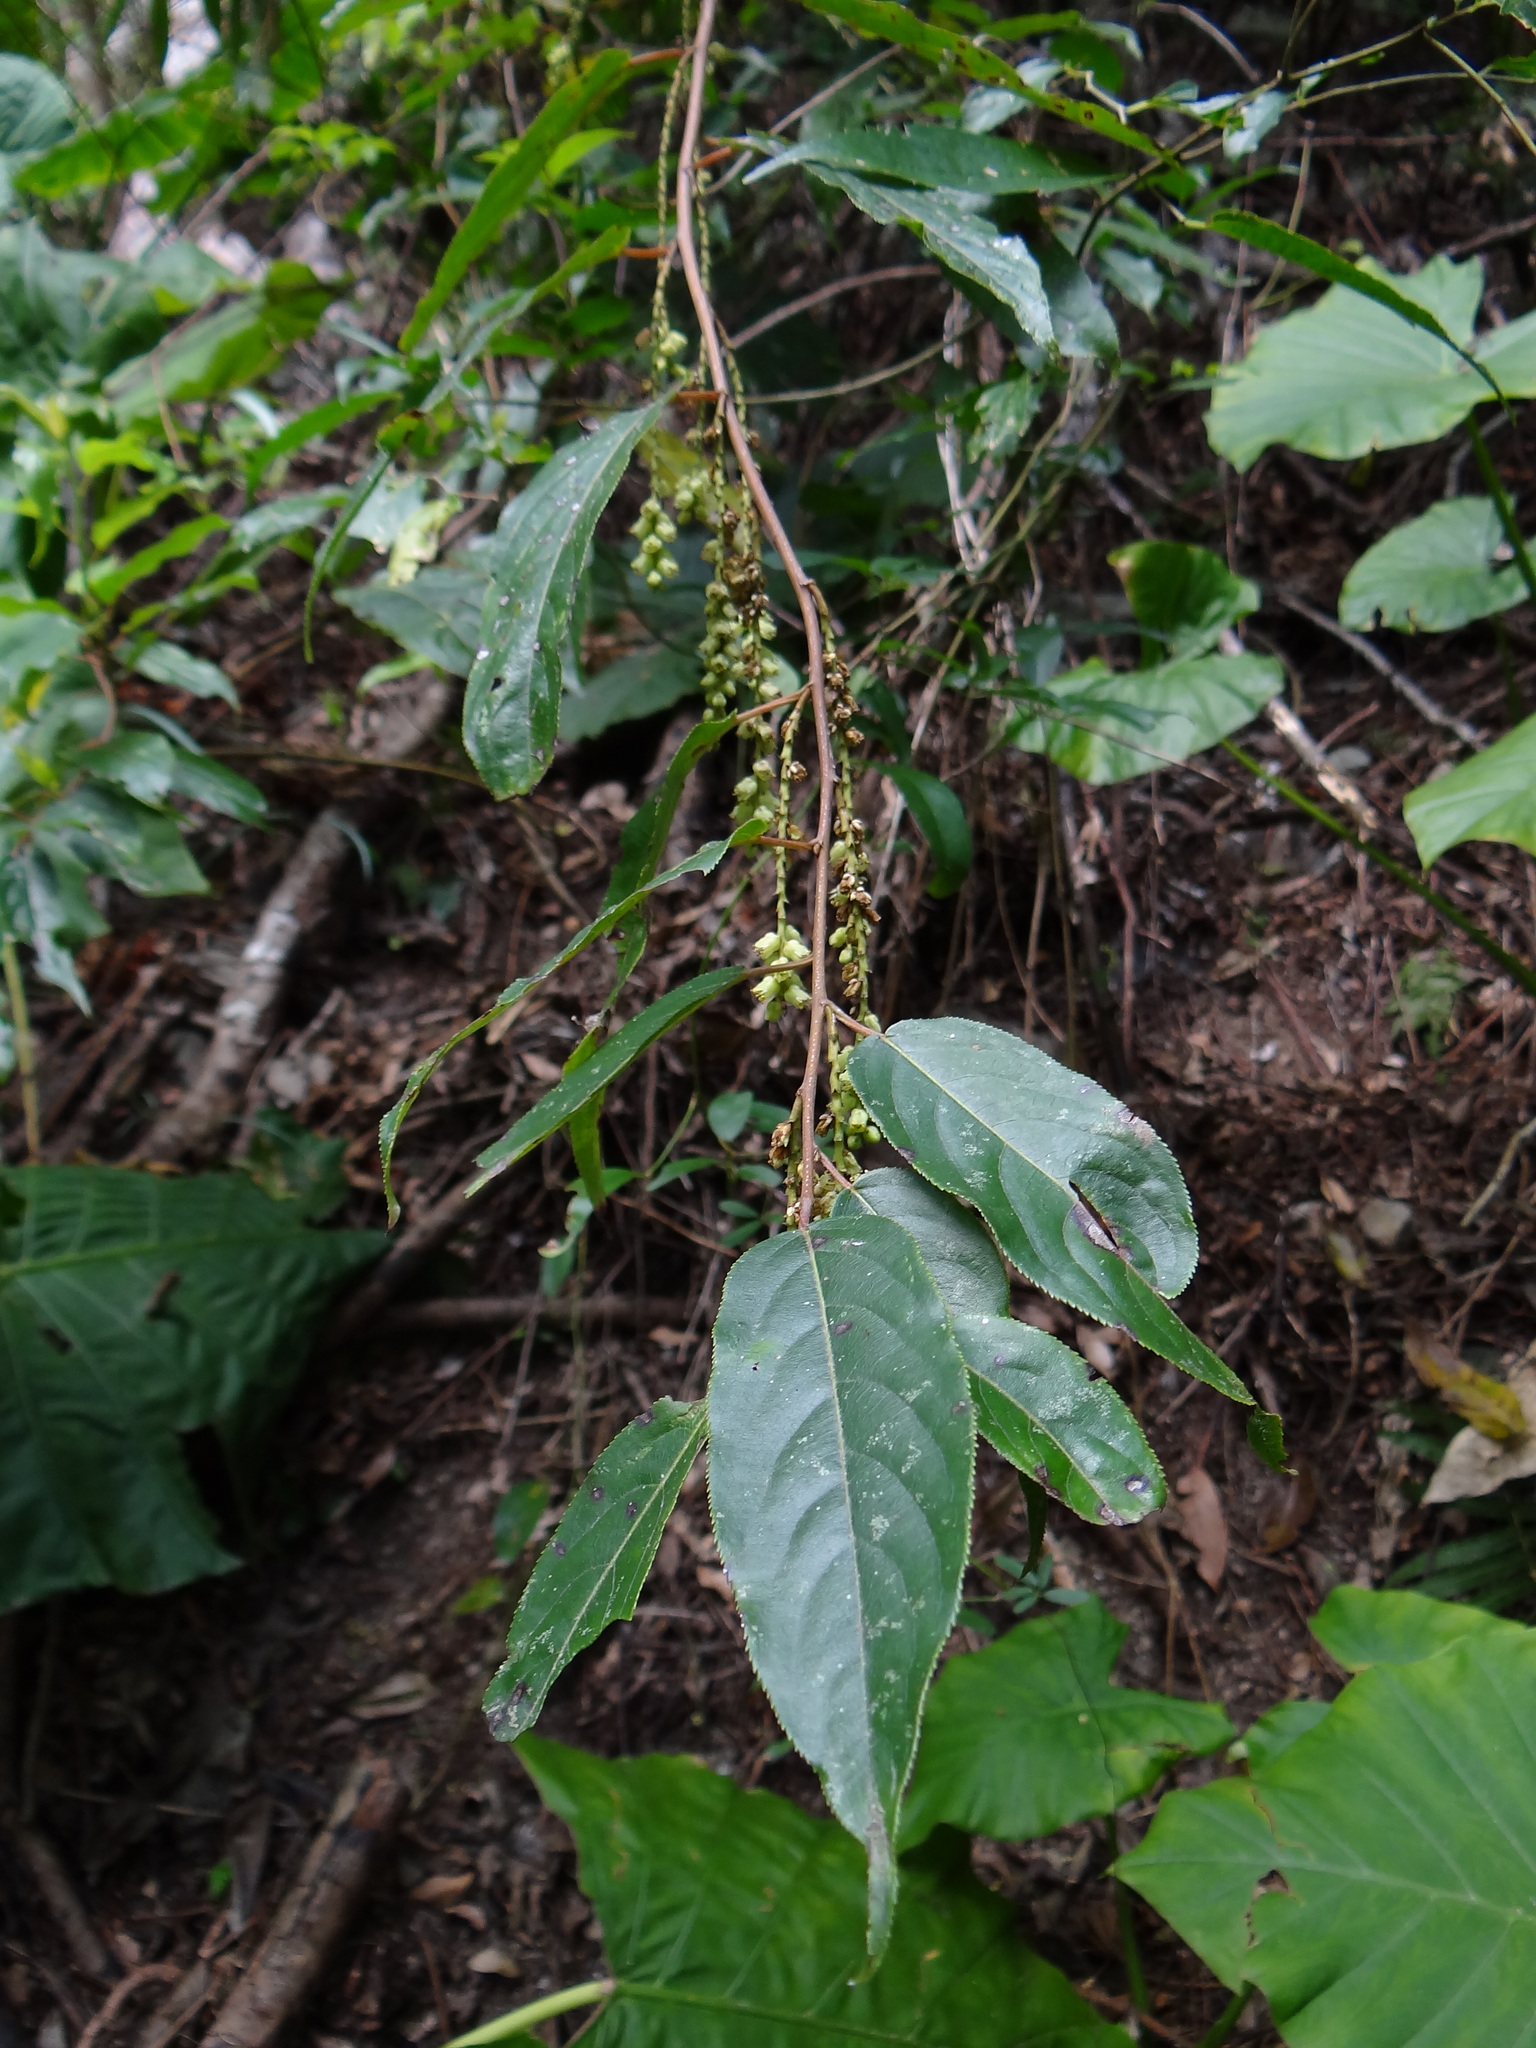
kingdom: Plantae
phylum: Tracheophyta
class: Magnoliopsida
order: Crossosomatales
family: Stachyuraceae
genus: Stachyurus
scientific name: Stachyurus himalaicus
